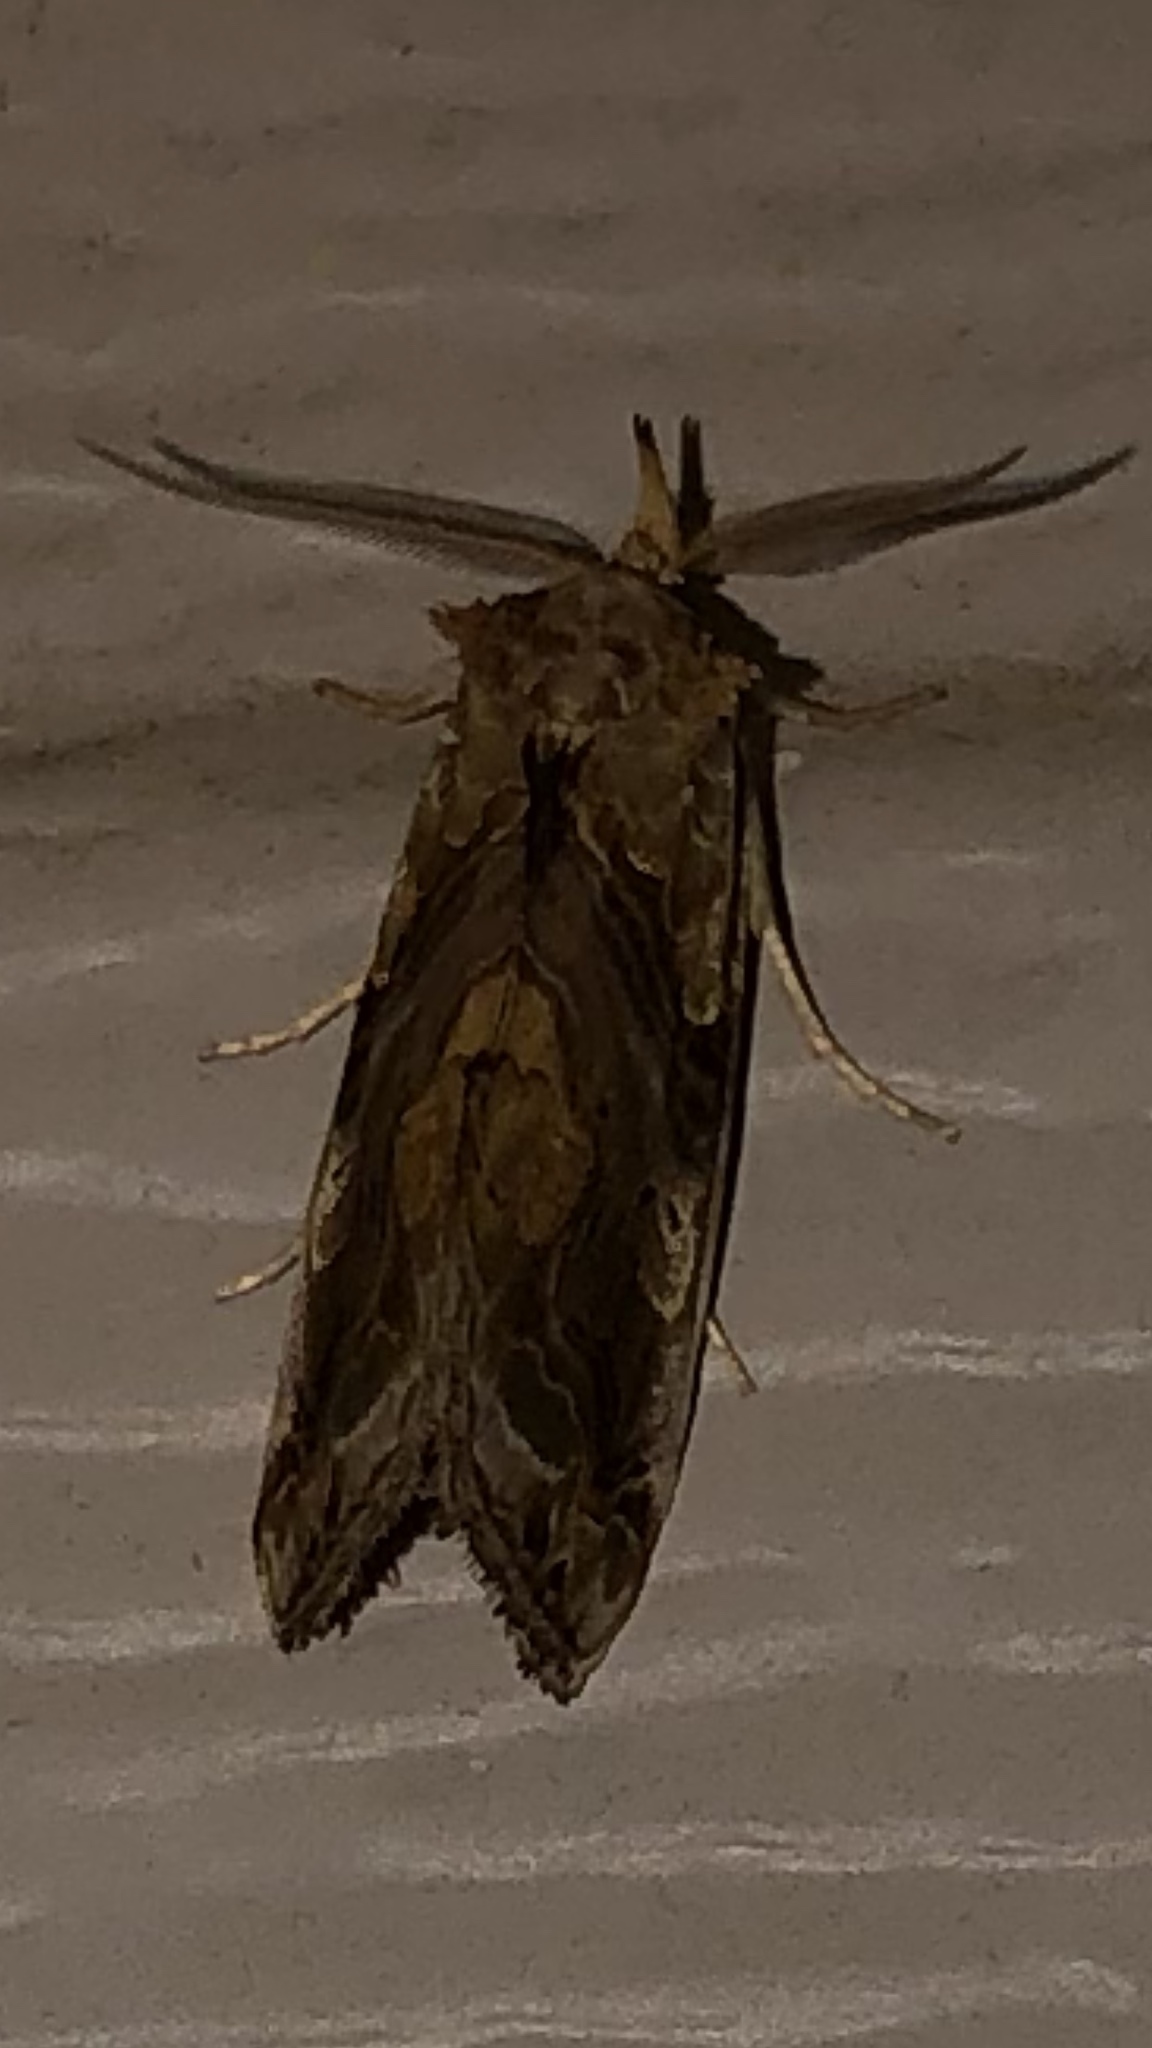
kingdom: Animalia
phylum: Arthropoda
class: Insecta
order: Lepidoptera
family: Erebidae
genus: Plusiodonta
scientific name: Plusiodonta compressipalpis
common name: Moonseed moth
